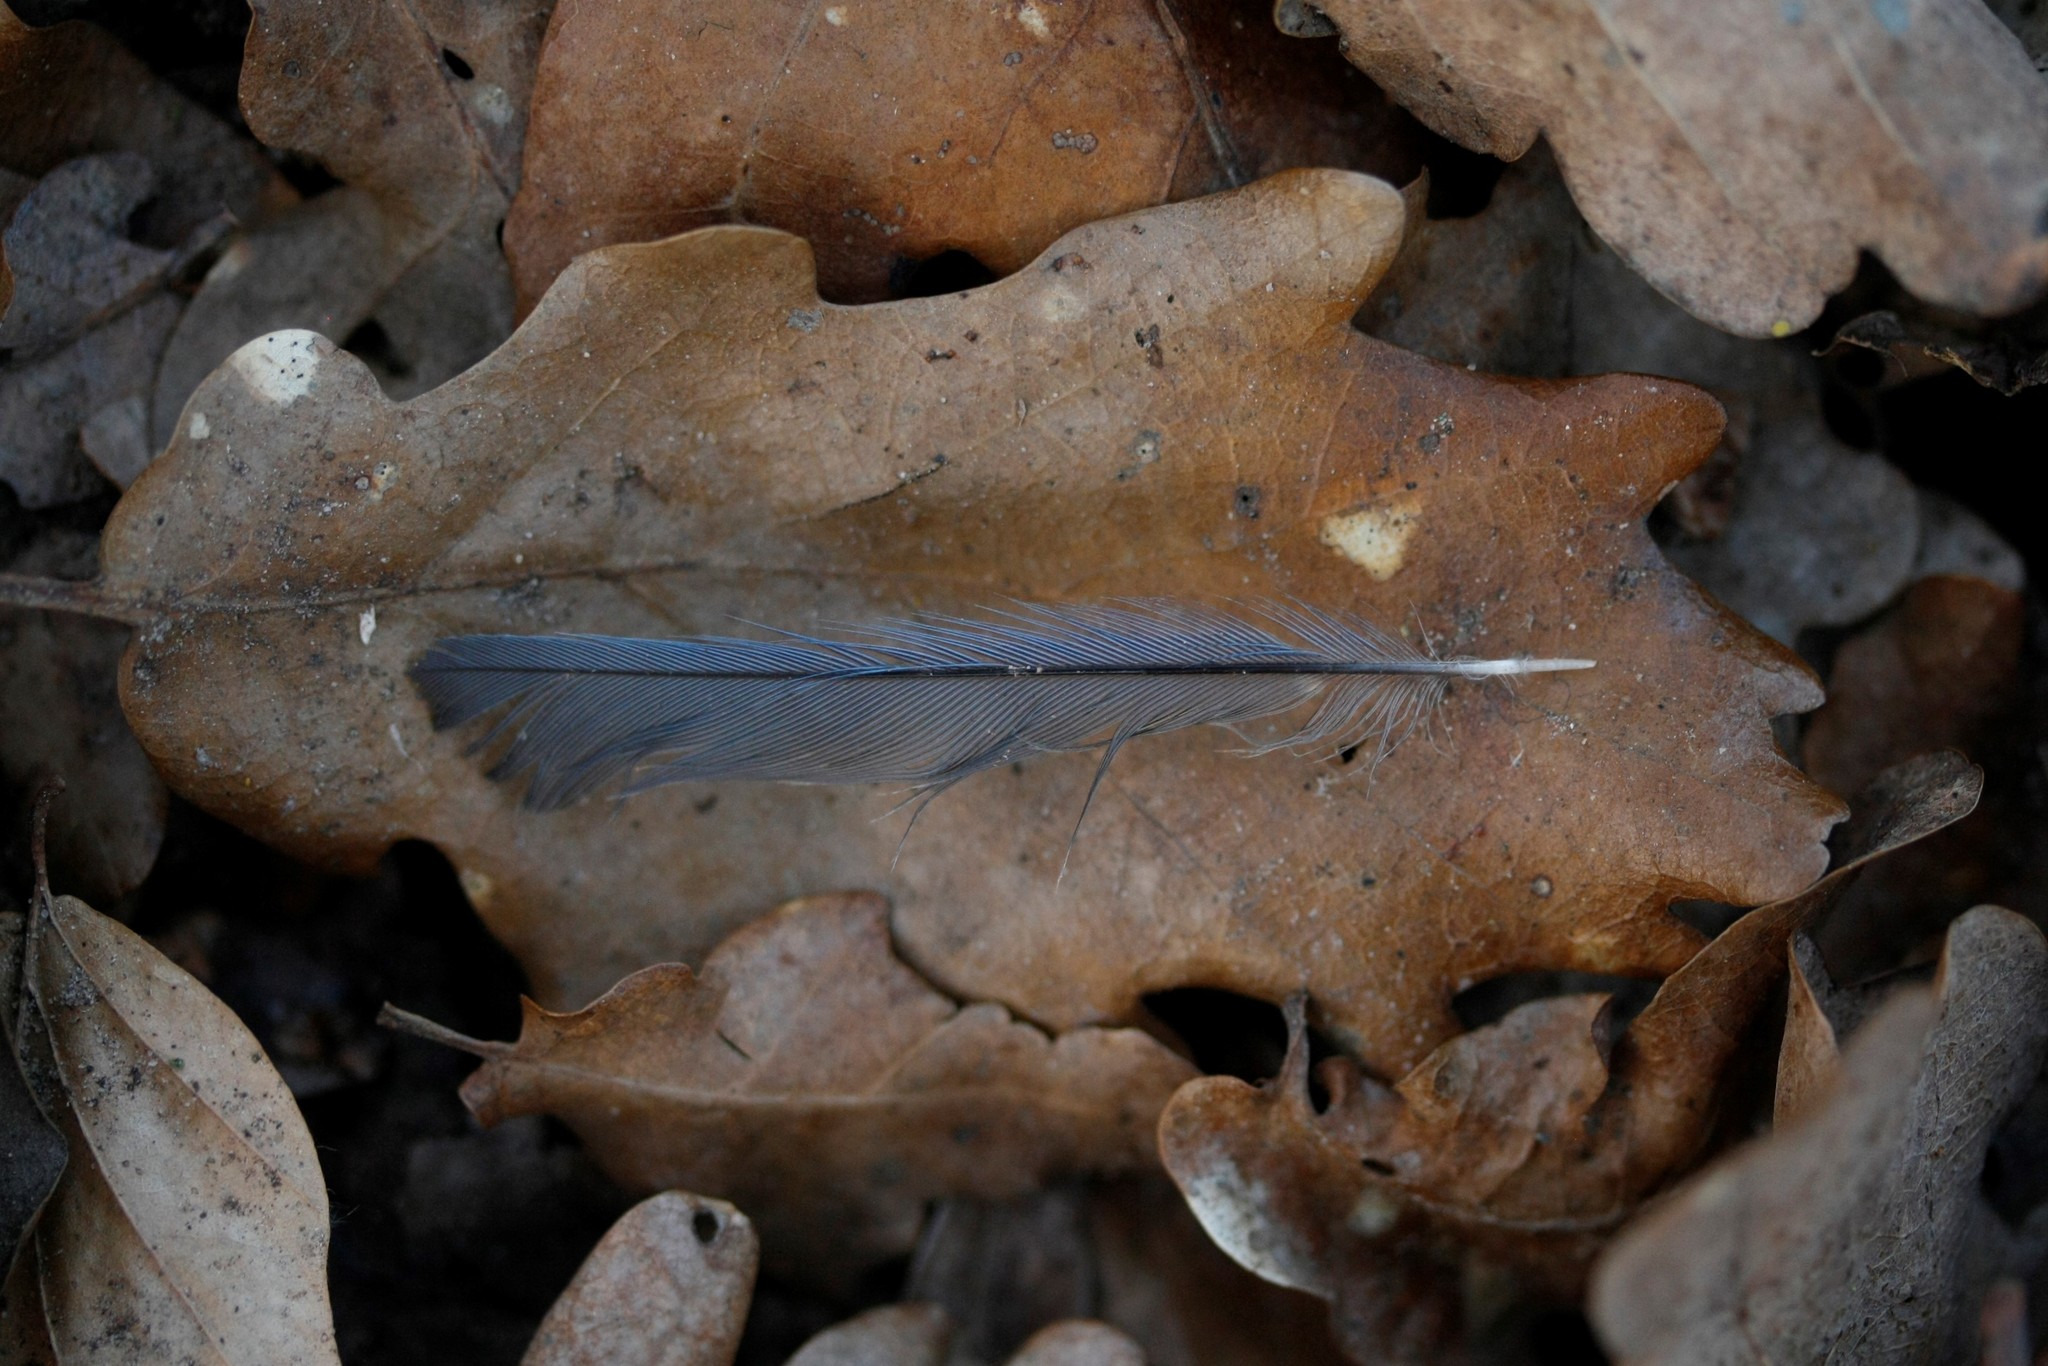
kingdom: Animalia
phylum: Chordata
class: Aves
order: Passeriformes
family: Paridae
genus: Cyanistes
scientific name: Cyanistes caeruleus
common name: Eurasian blue tit
